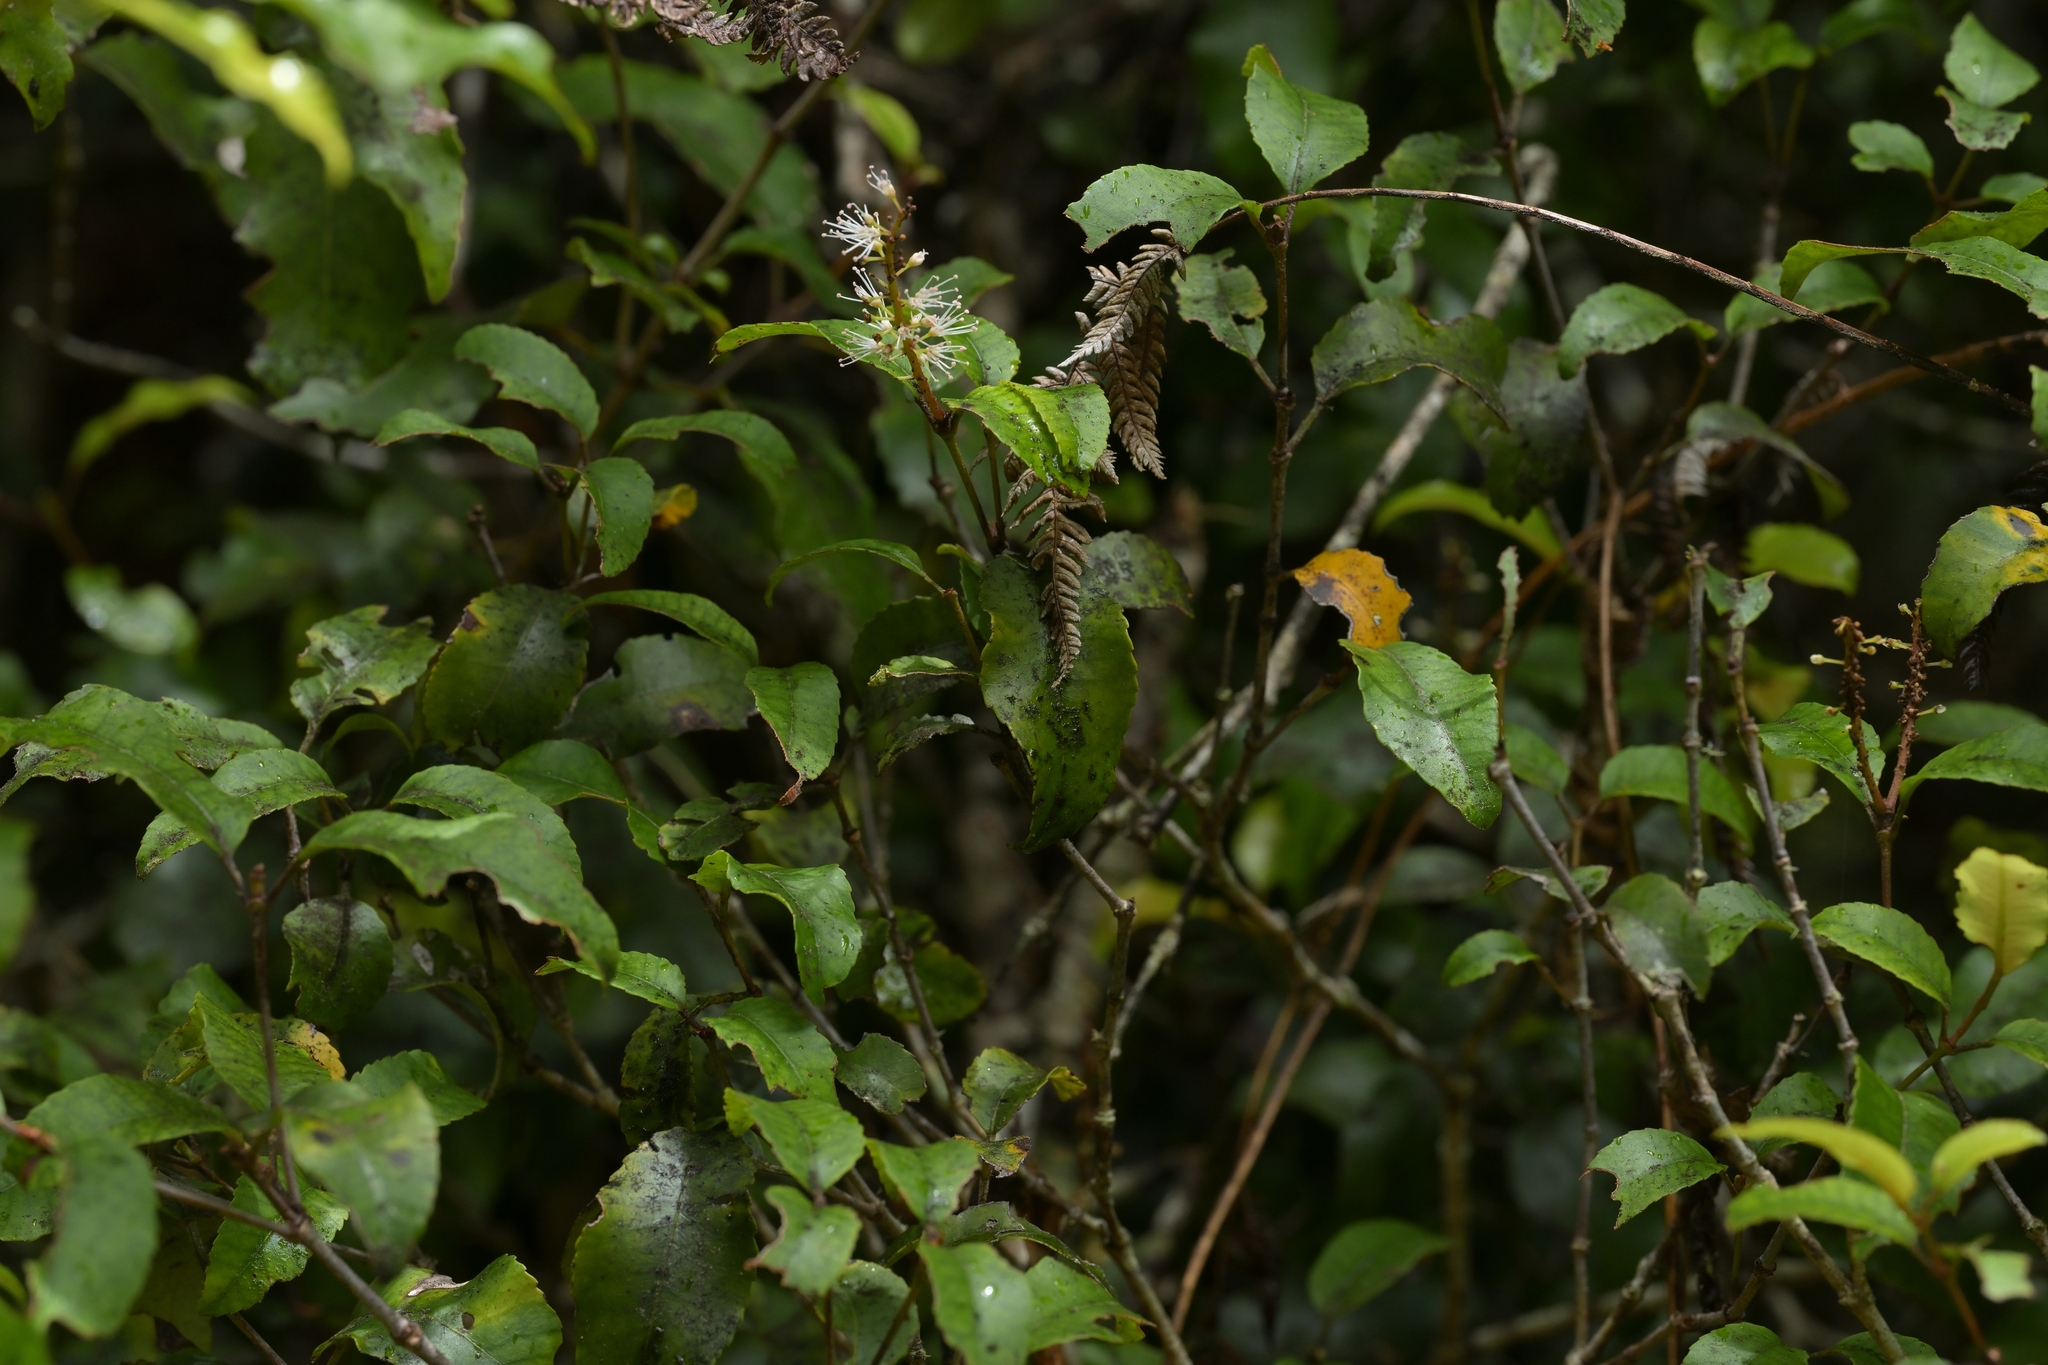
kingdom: Plantae
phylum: Tracheophyta
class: Magnoliopsida
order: Oxalidales
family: Cunoniaceae
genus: Pterophylla
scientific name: Pterophylla racemosa
